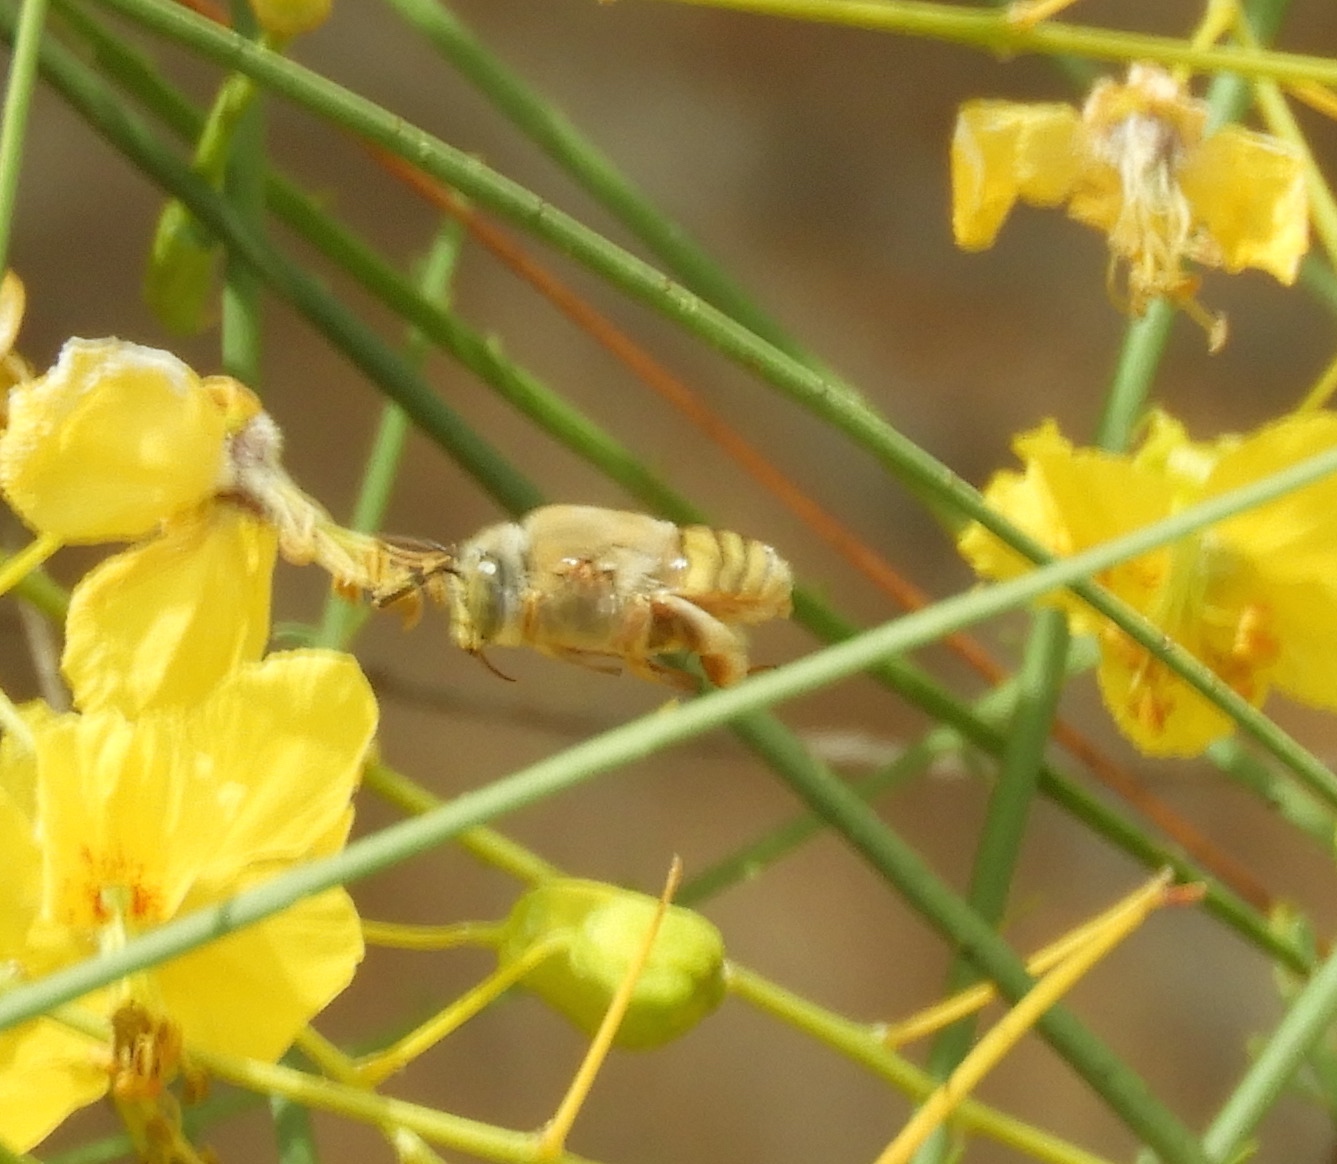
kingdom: Animalia
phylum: Arthropoda
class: Insecta
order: Hymenoptera
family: Apidae
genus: Apidae
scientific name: Apidae
